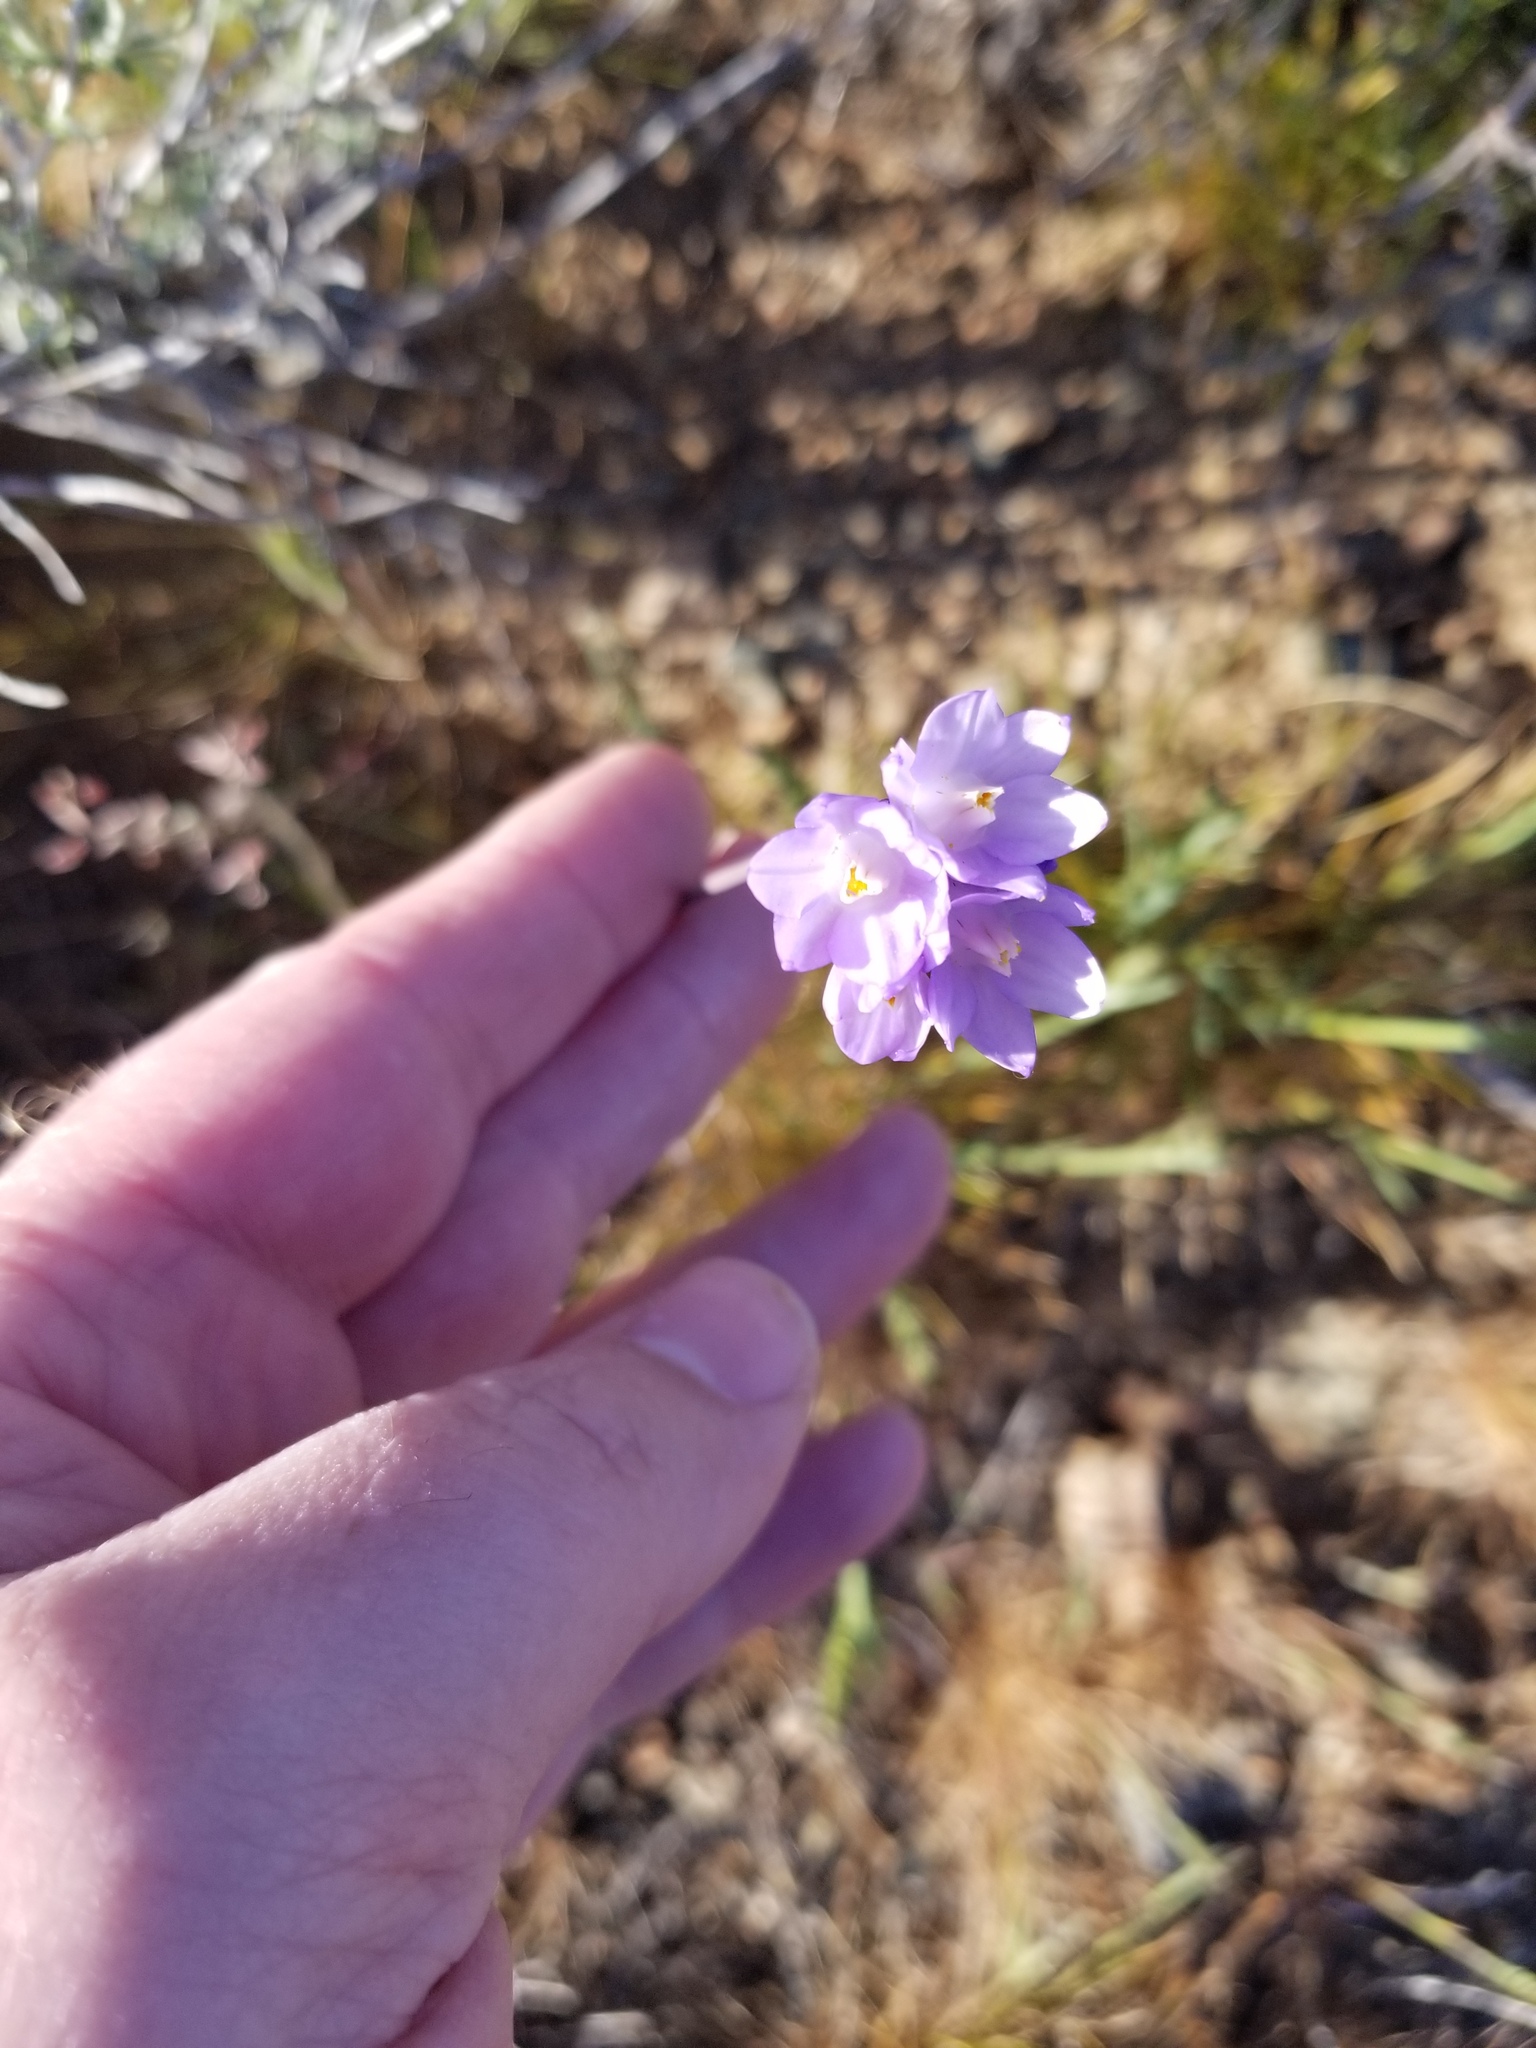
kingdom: Plantae
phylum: Tracheophyta
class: Liliopsida
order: Asparagales
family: Asparagaceae
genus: Dipterostemon
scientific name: Dipterostemon capitatus
